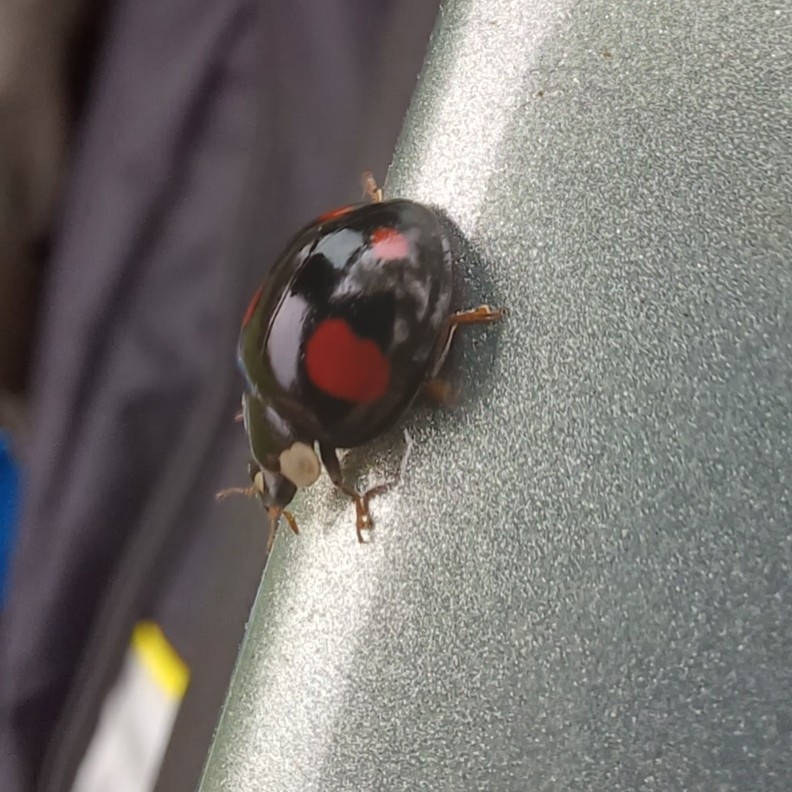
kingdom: Animalia
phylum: Arthropoda
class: Insecta
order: Coleoptera
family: Coccinellidae
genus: Harmonia
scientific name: Harmonia axyridis
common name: Harlequin ladybird
